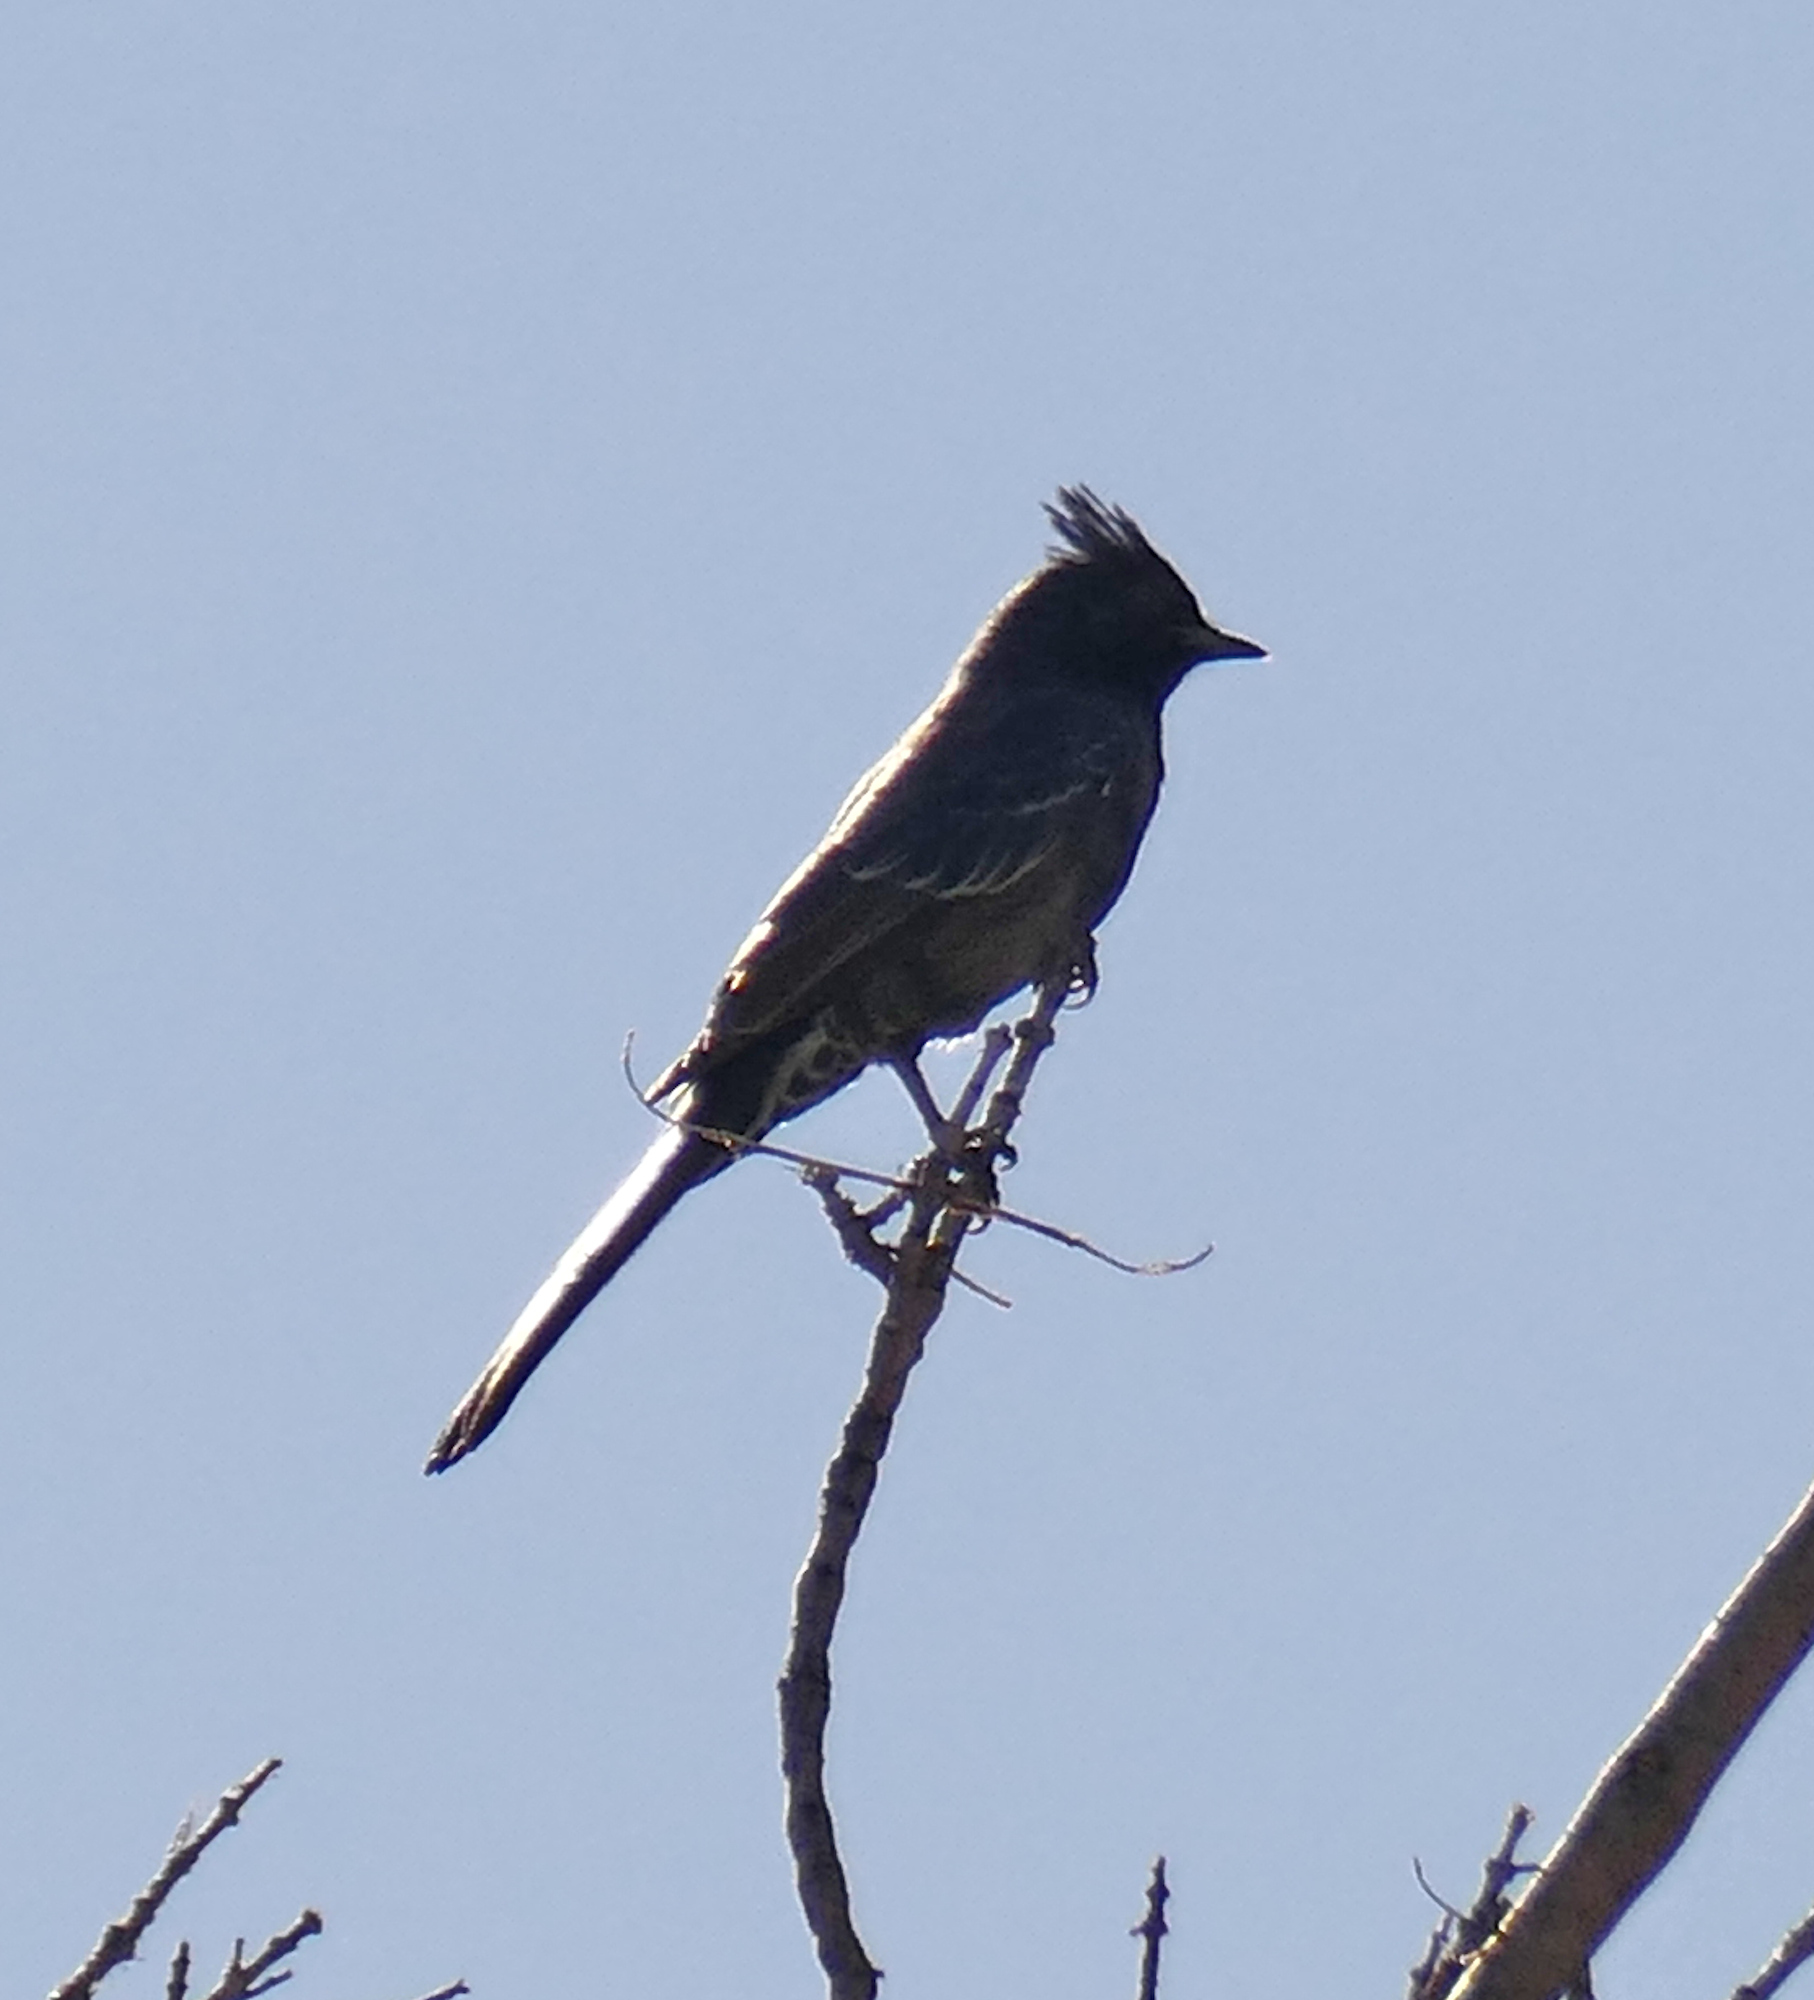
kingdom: Animalia
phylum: Chordata
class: Aves
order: Passeriformes
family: Ptilogonatidae
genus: Phainopepla
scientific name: Phainopepla nitens
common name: Phainopepla
